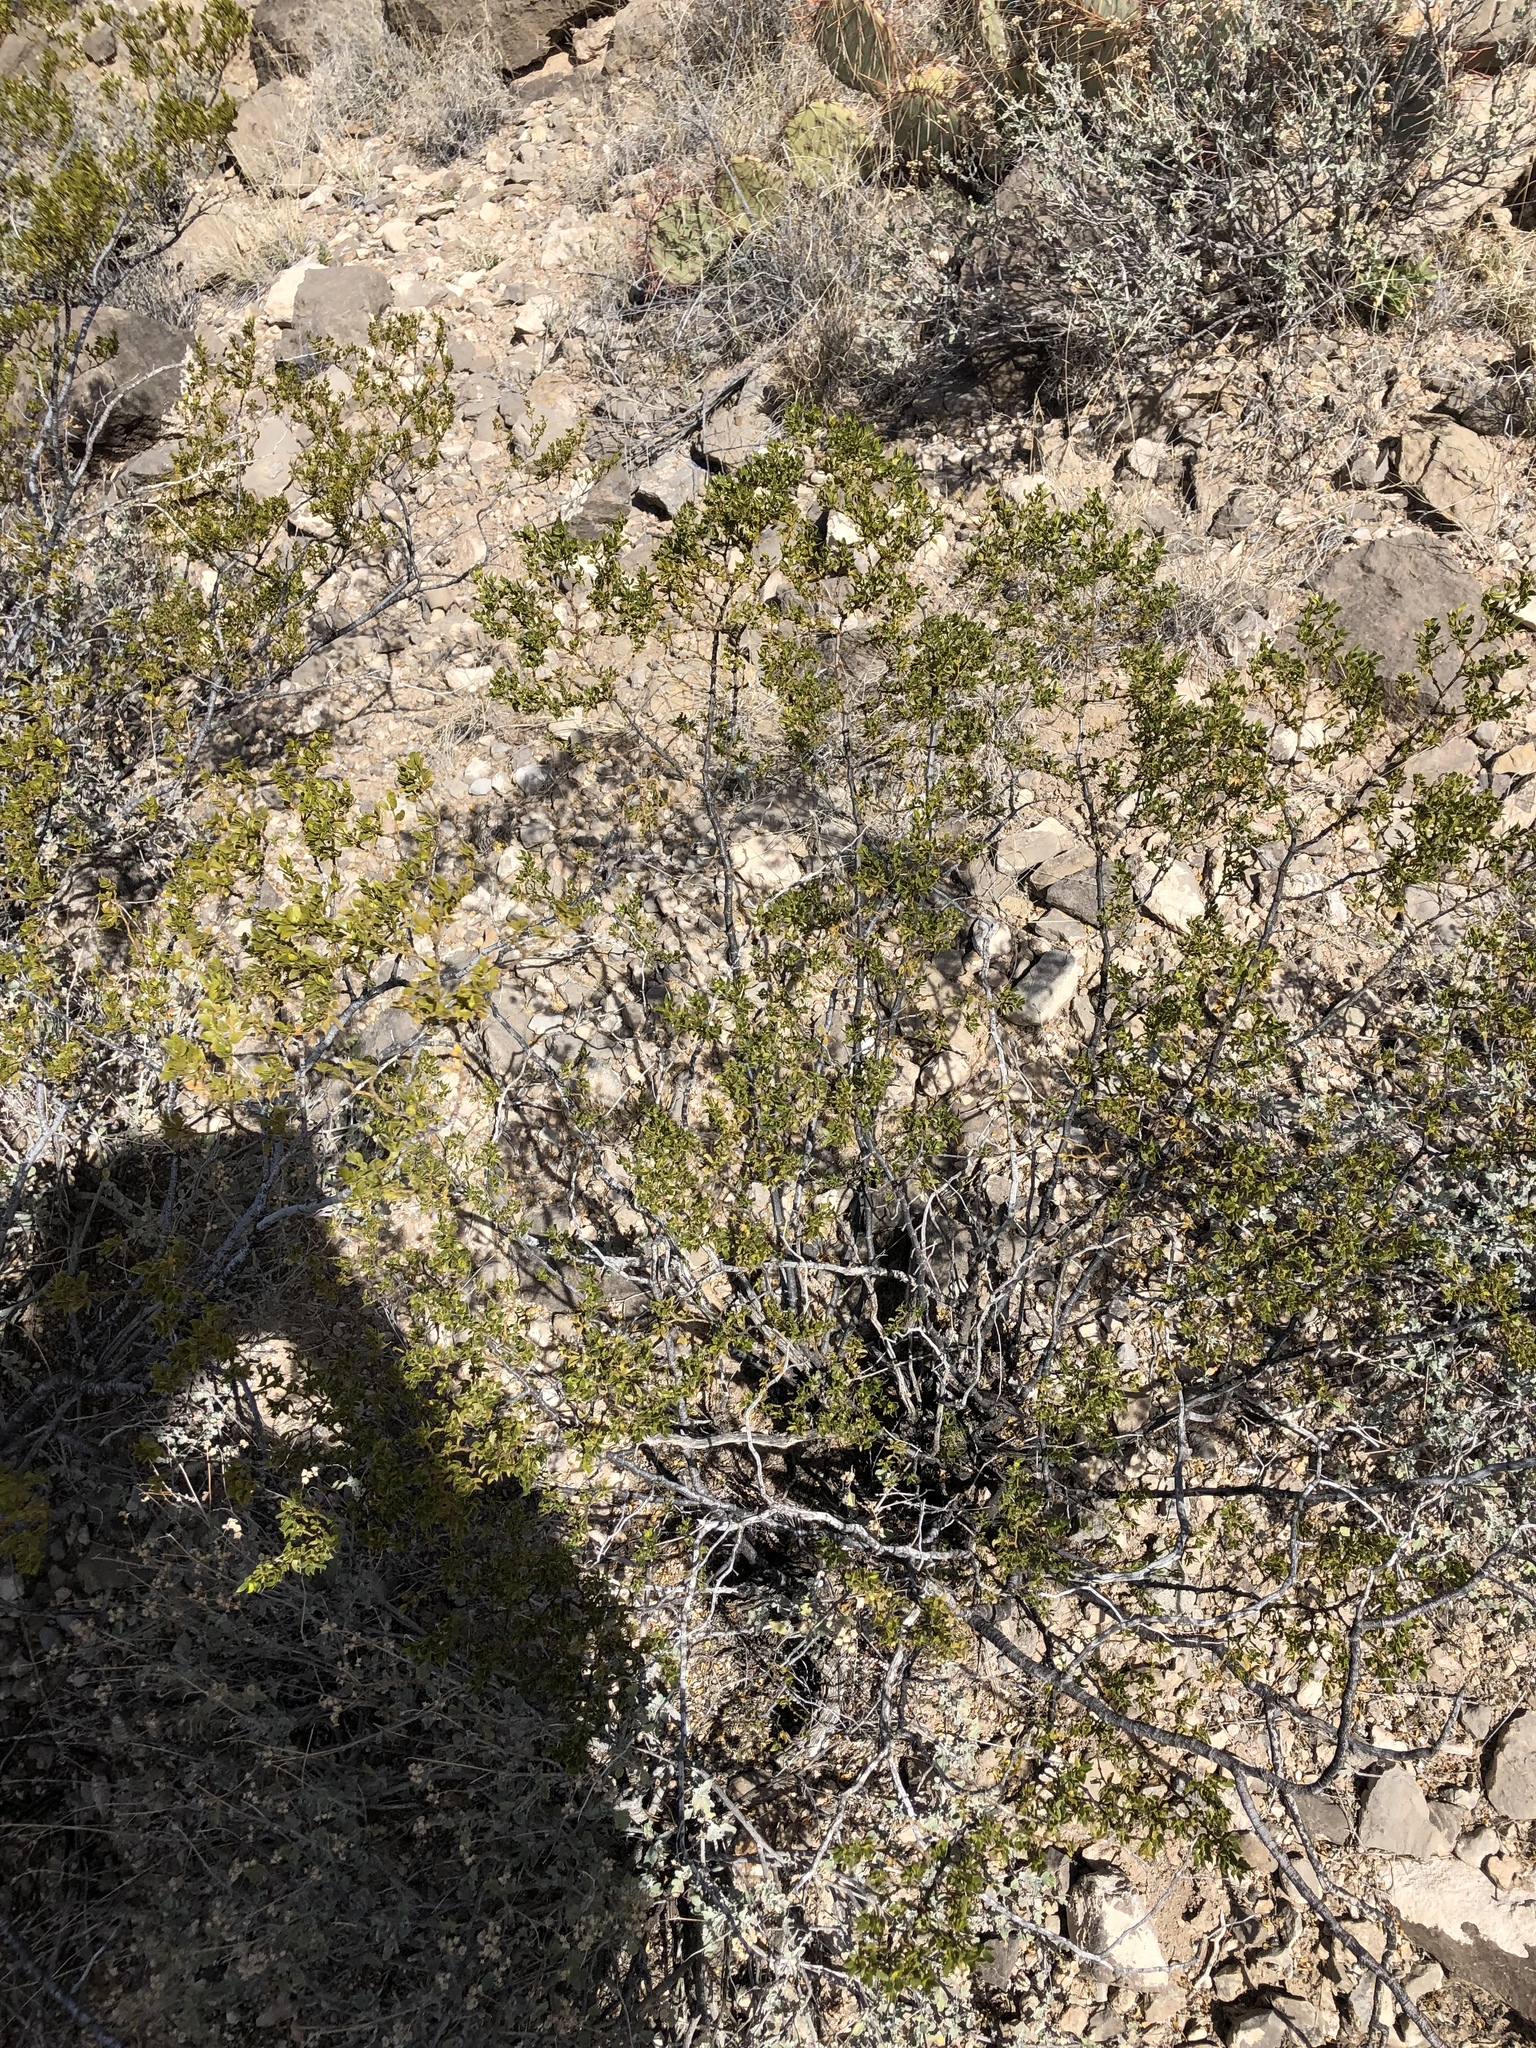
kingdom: Plantae
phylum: Tracheophyta
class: Magnoliopsida
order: Zygophyllales
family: Zygophyllaceae
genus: Larrea
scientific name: Larrea tridentata
